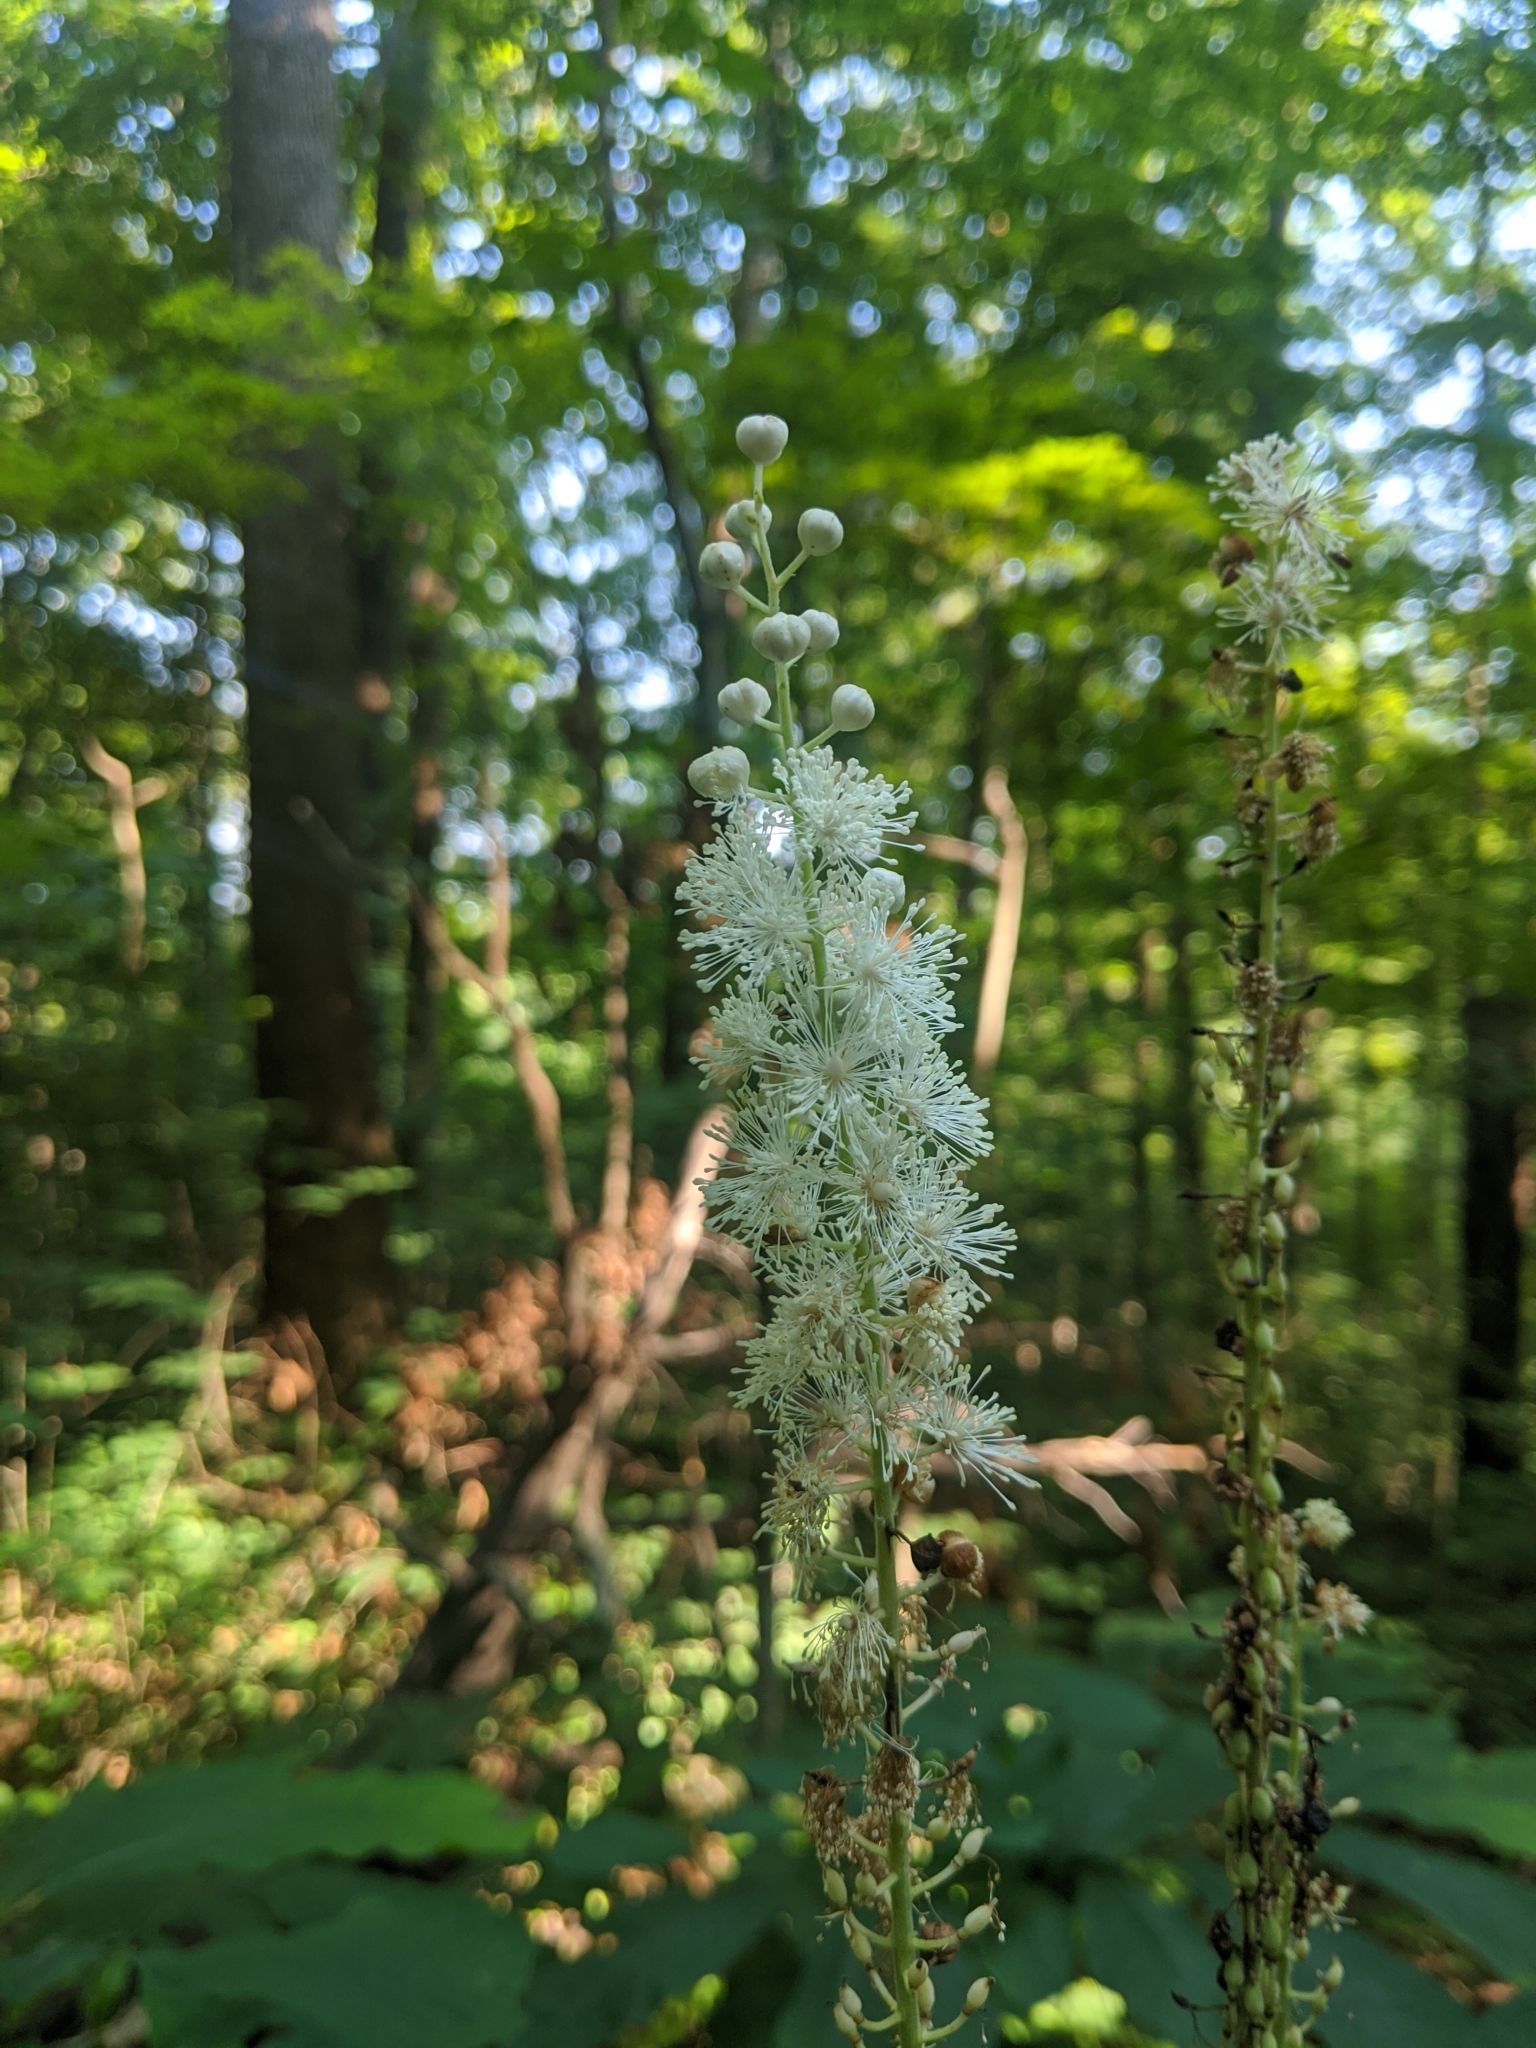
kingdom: Plantae
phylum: Tracheophyta
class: Magnoliopsida
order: Ranunculales
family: Ranunculaceae
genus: Actaea
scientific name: Actaea racemosa
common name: Black cohosh
